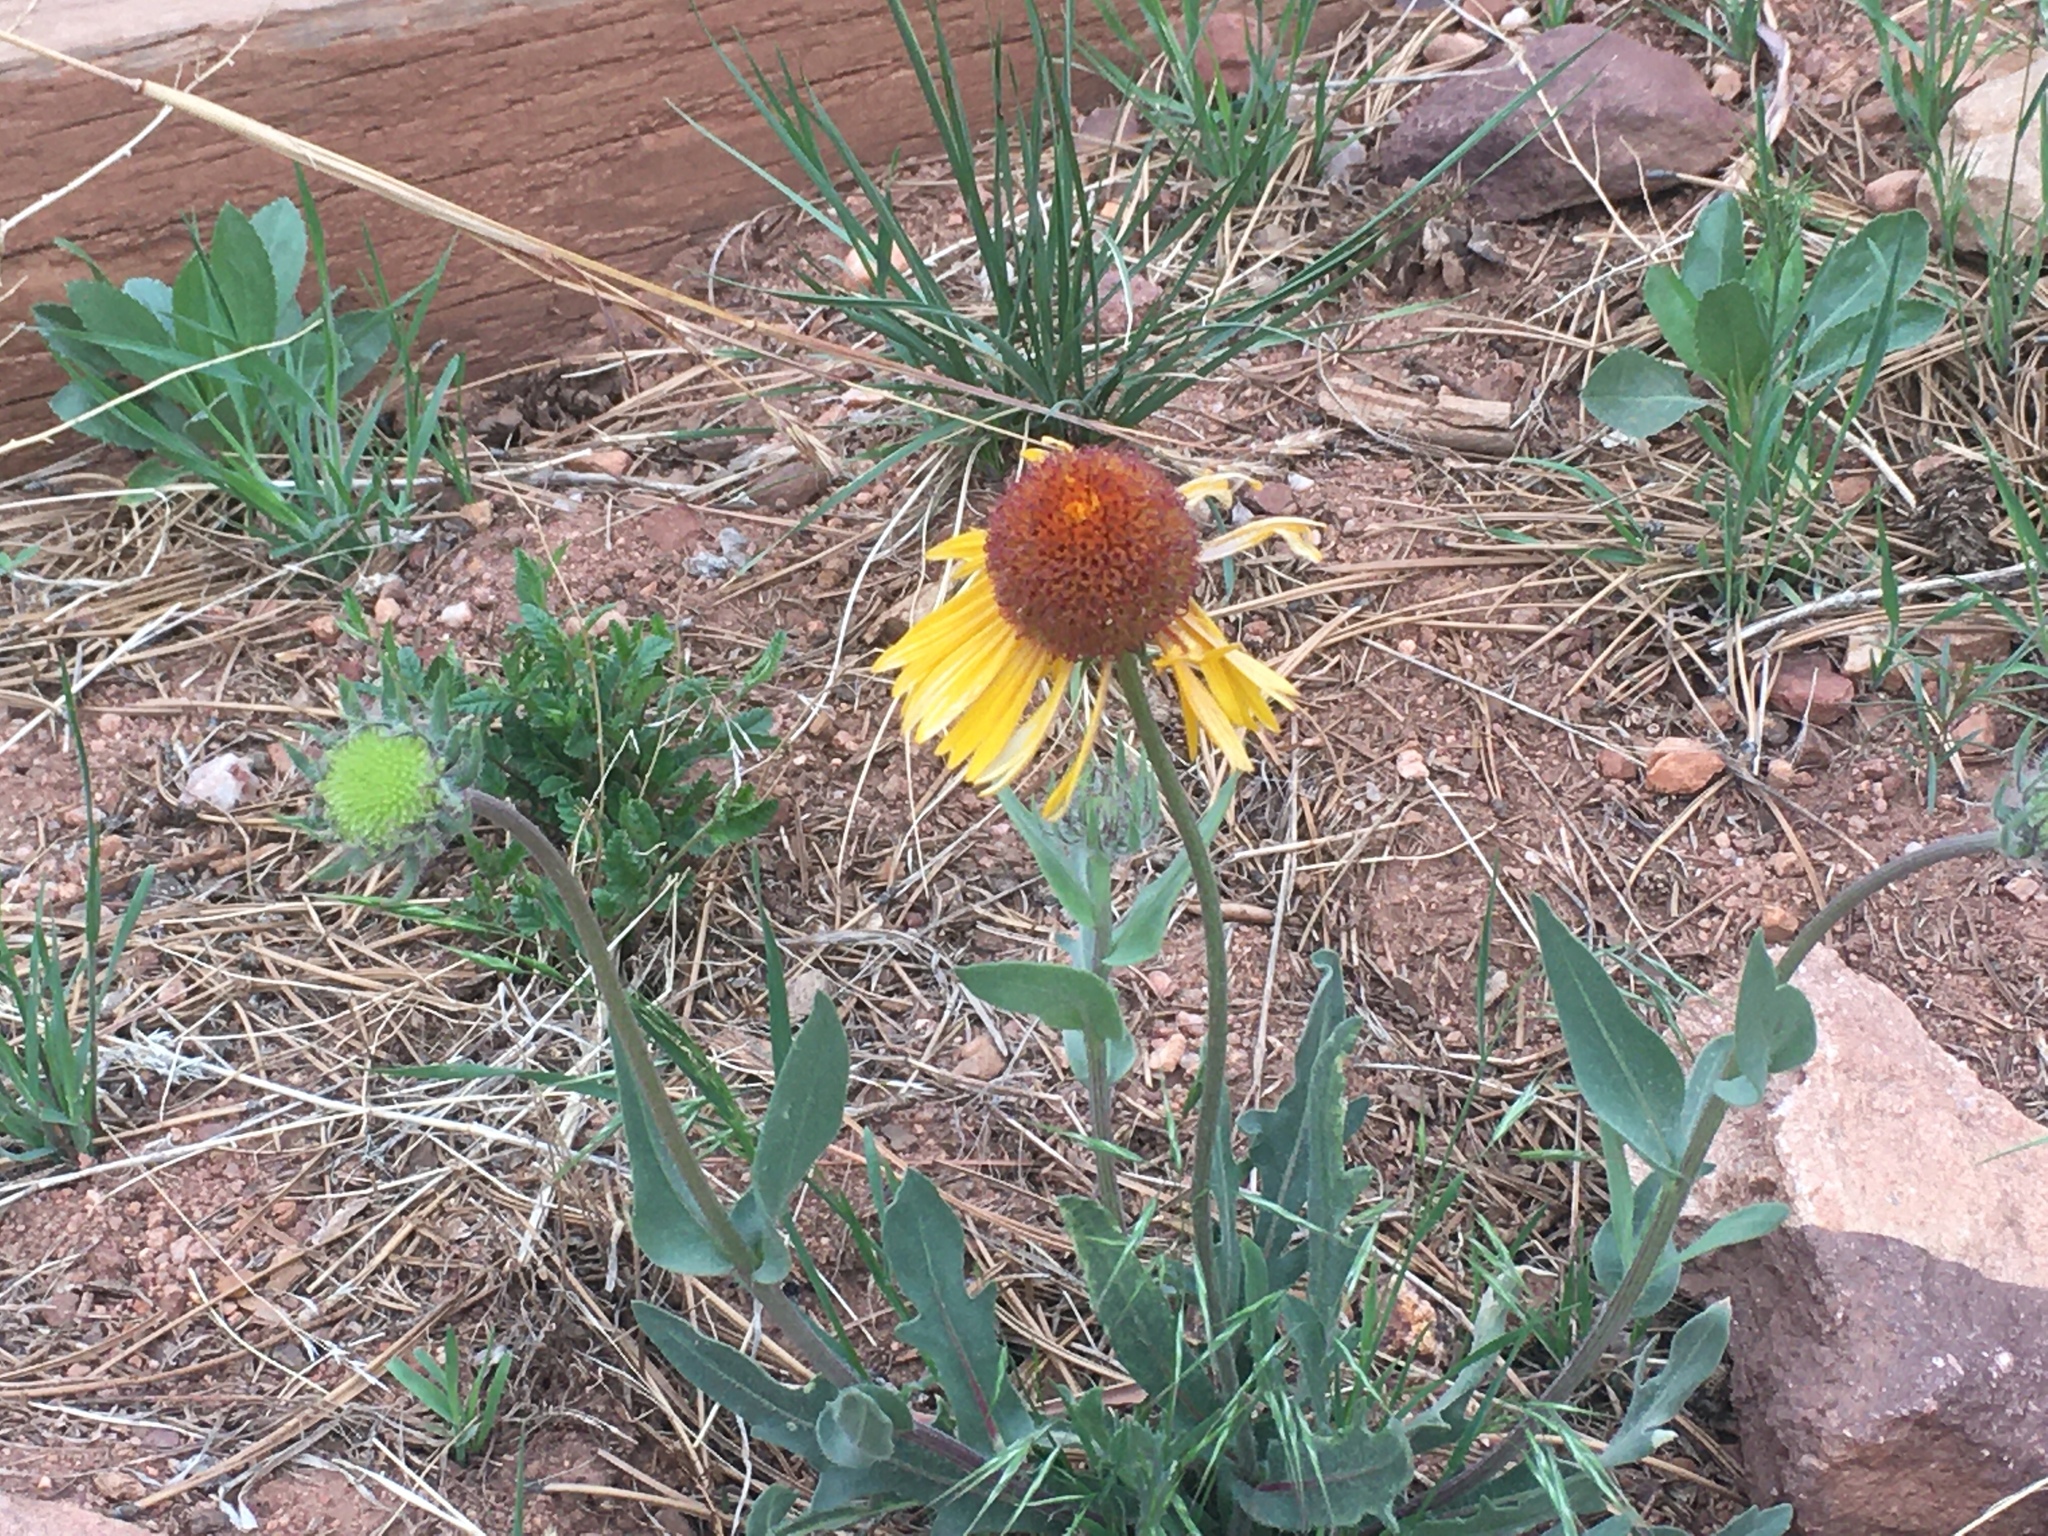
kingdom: Plantae
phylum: Tracheophyta
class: Magnoliopsida
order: Asterales
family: Asteraceae
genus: Gaillardia
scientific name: Gaillardia aristata
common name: Blanket-flower
